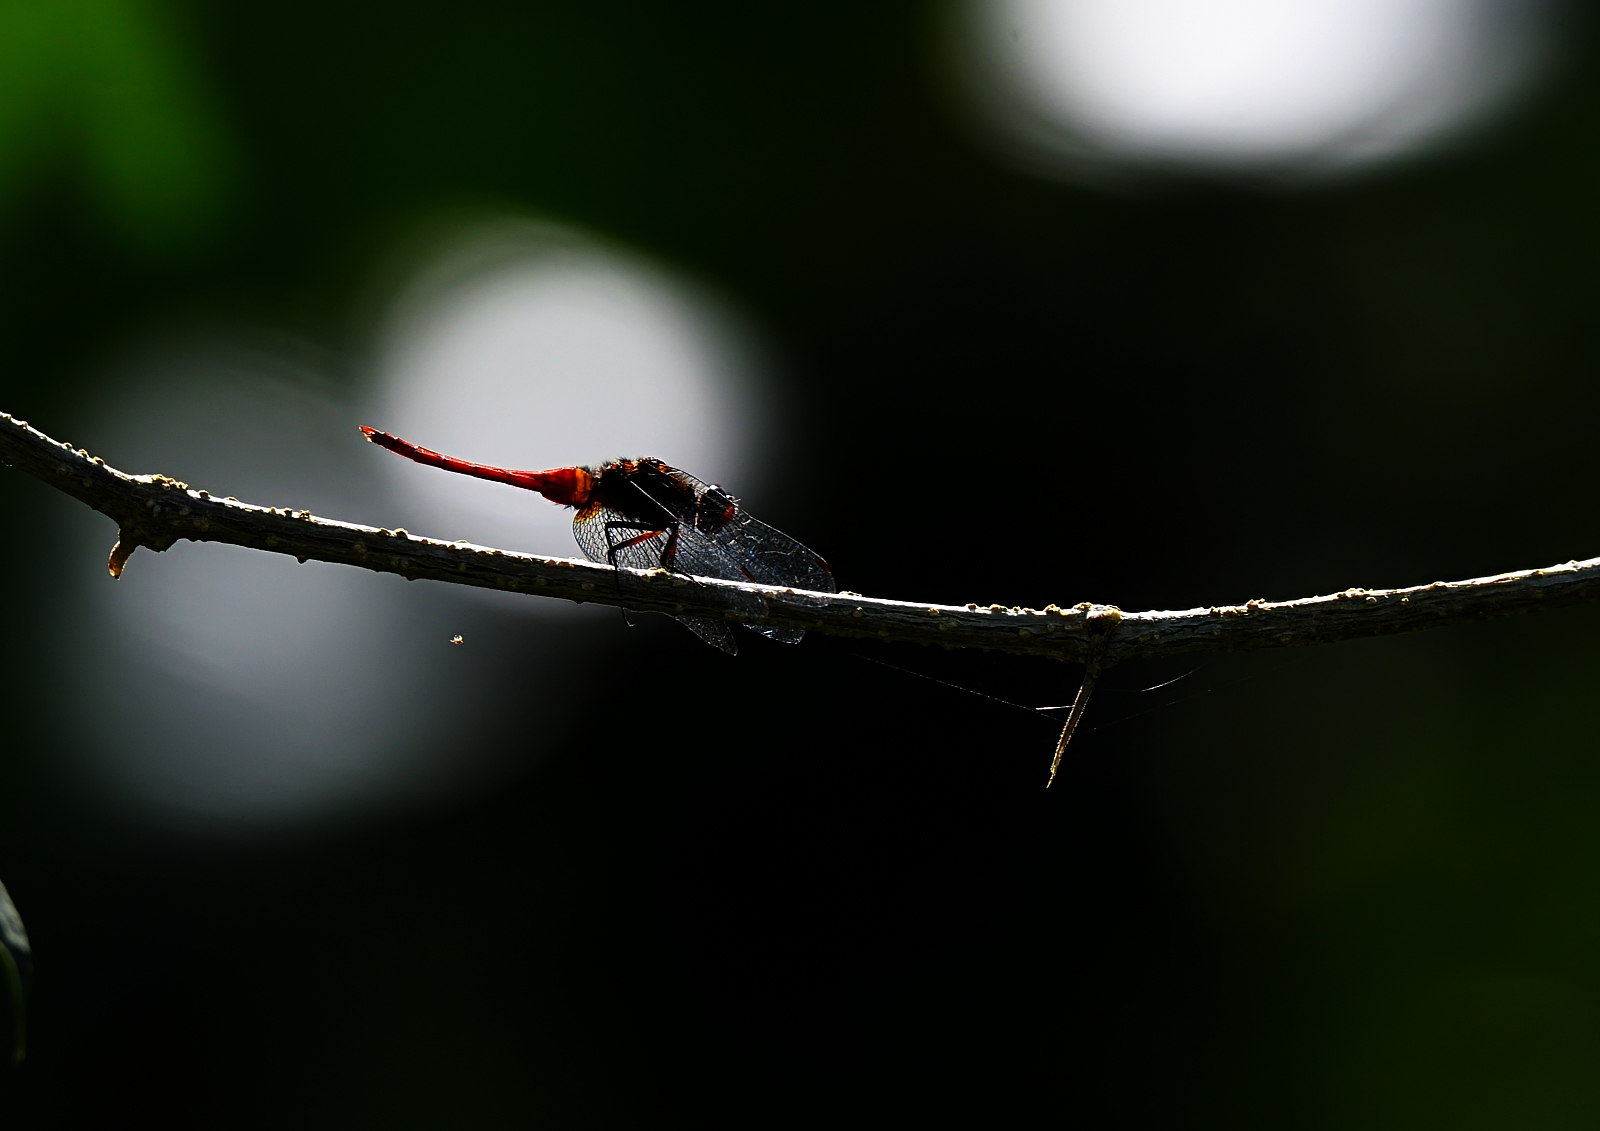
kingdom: Animalia
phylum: Arthropoda
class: Insecta
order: Odonata
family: Libellulidae
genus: Orthetrum
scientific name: Orthetrum chrysis
